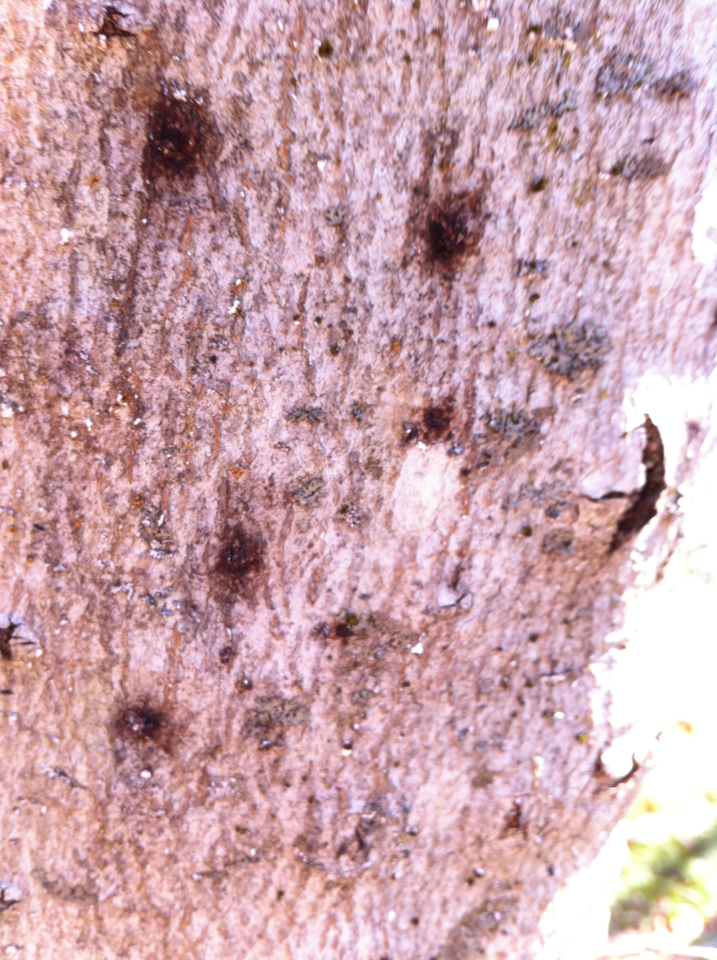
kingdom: Animalia
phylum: Arthropoda
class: Insecta
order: Hemiptera
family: Eriococcidae
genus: Cryptococcus
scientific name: Cryptococcus fagisuga
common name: Beech scale
